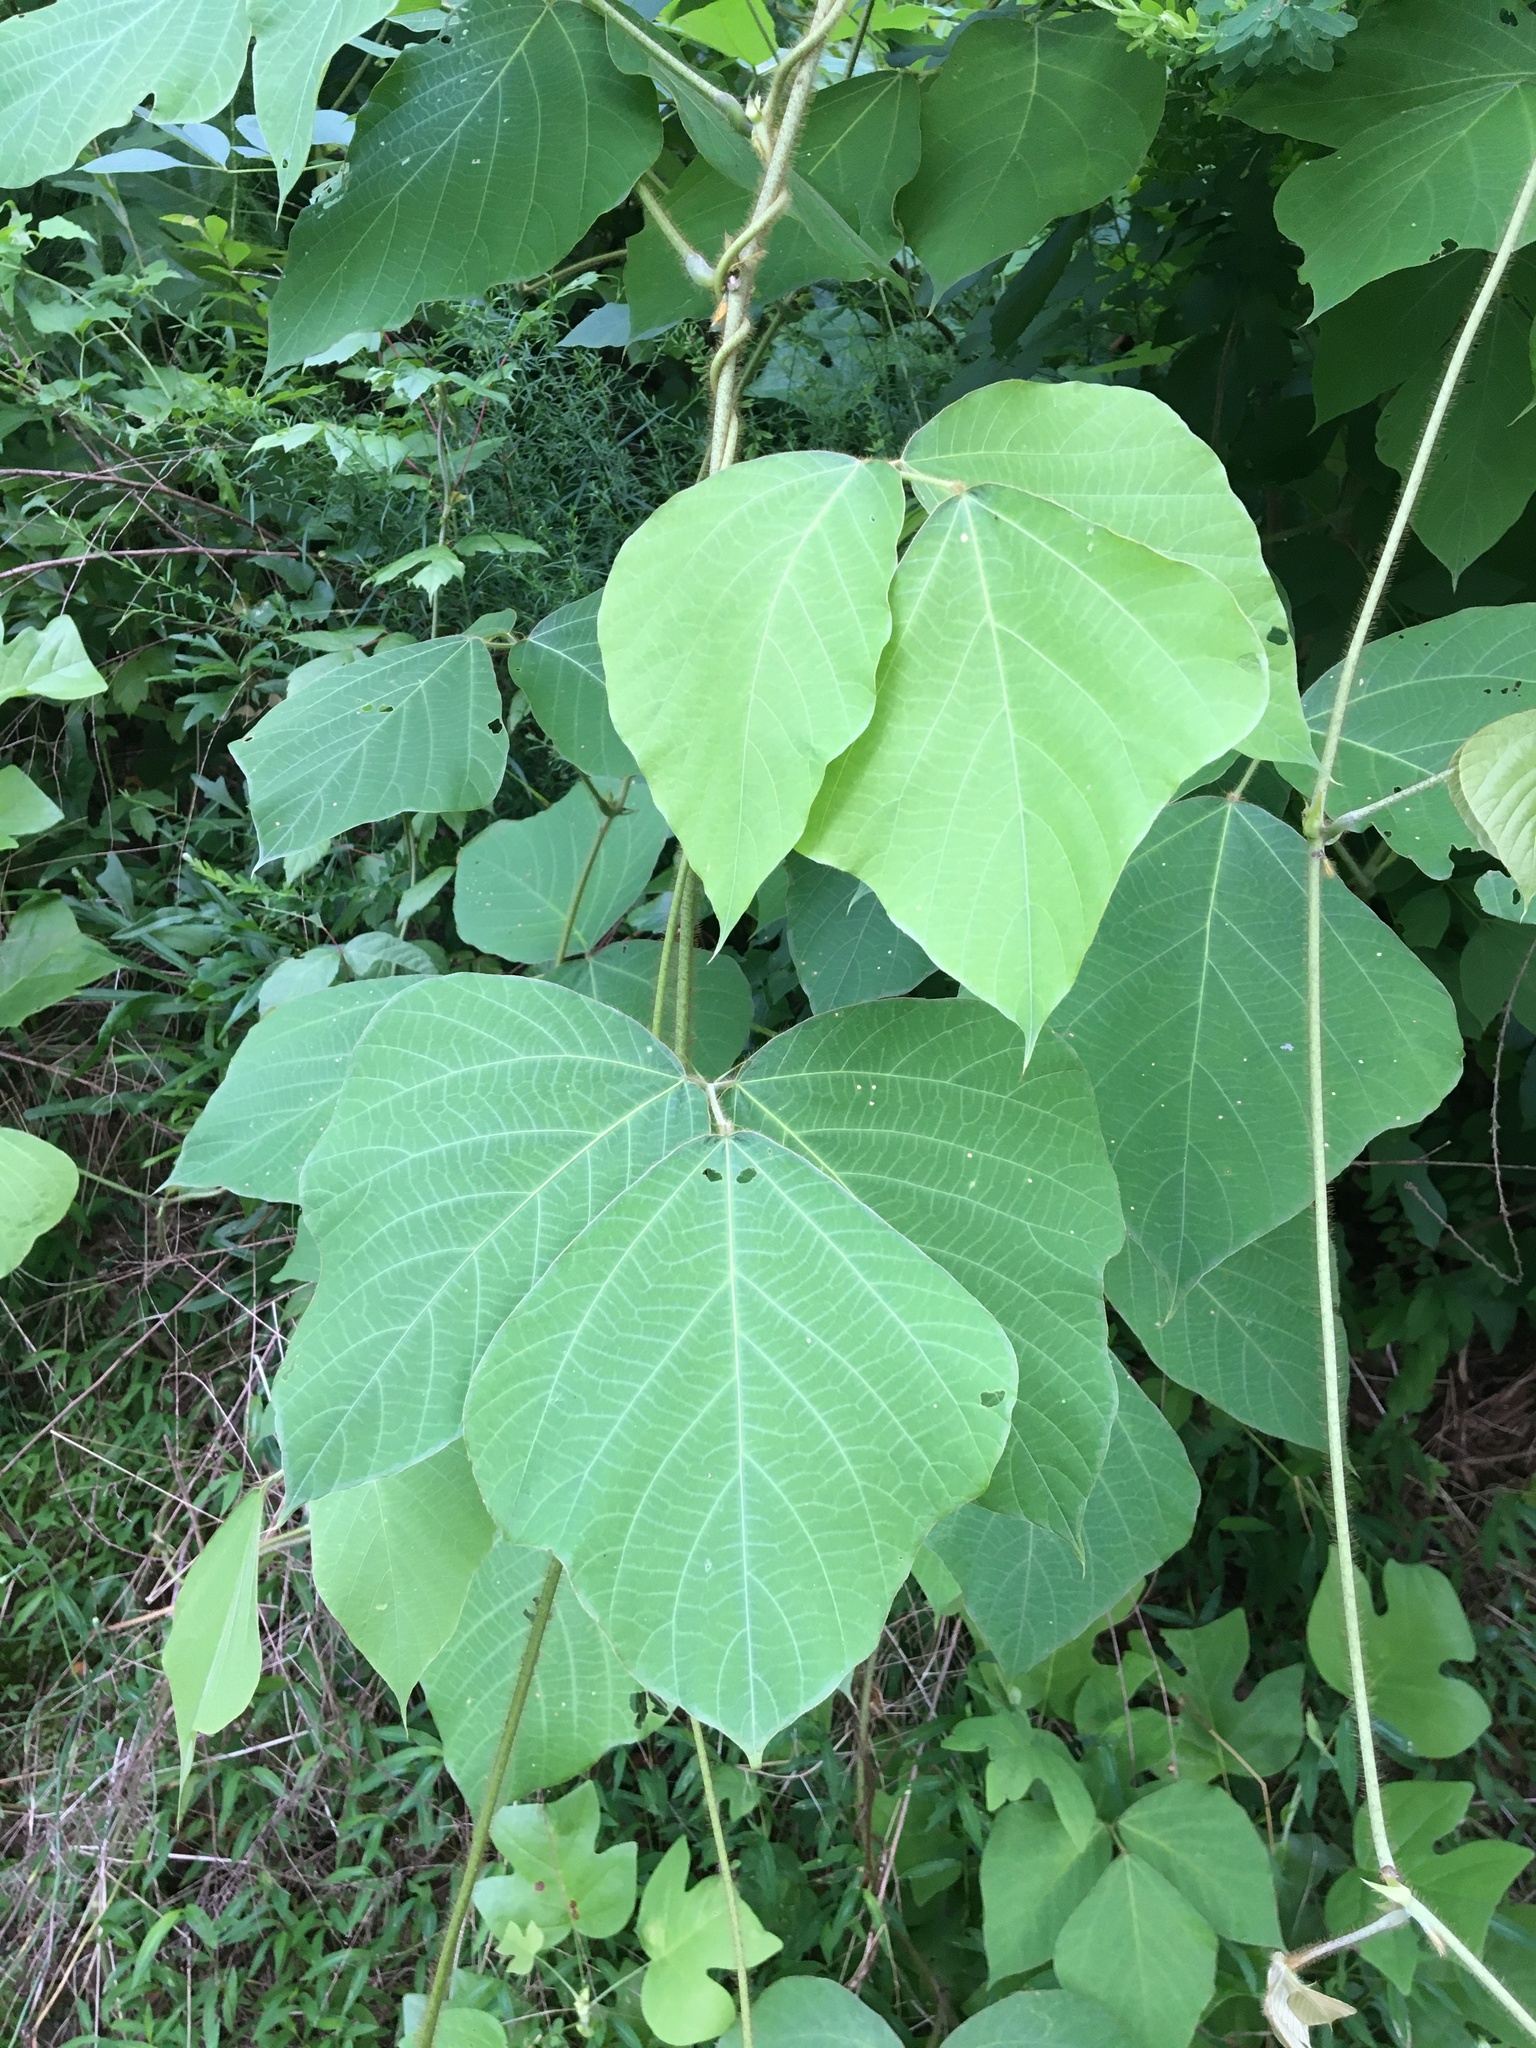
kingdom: Plantae
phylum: Tracheophyta
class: Magnoliopsida
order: Fabales
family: Fabaceae
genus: Pueraria
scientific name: Pueraria montana
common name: Kudzu
